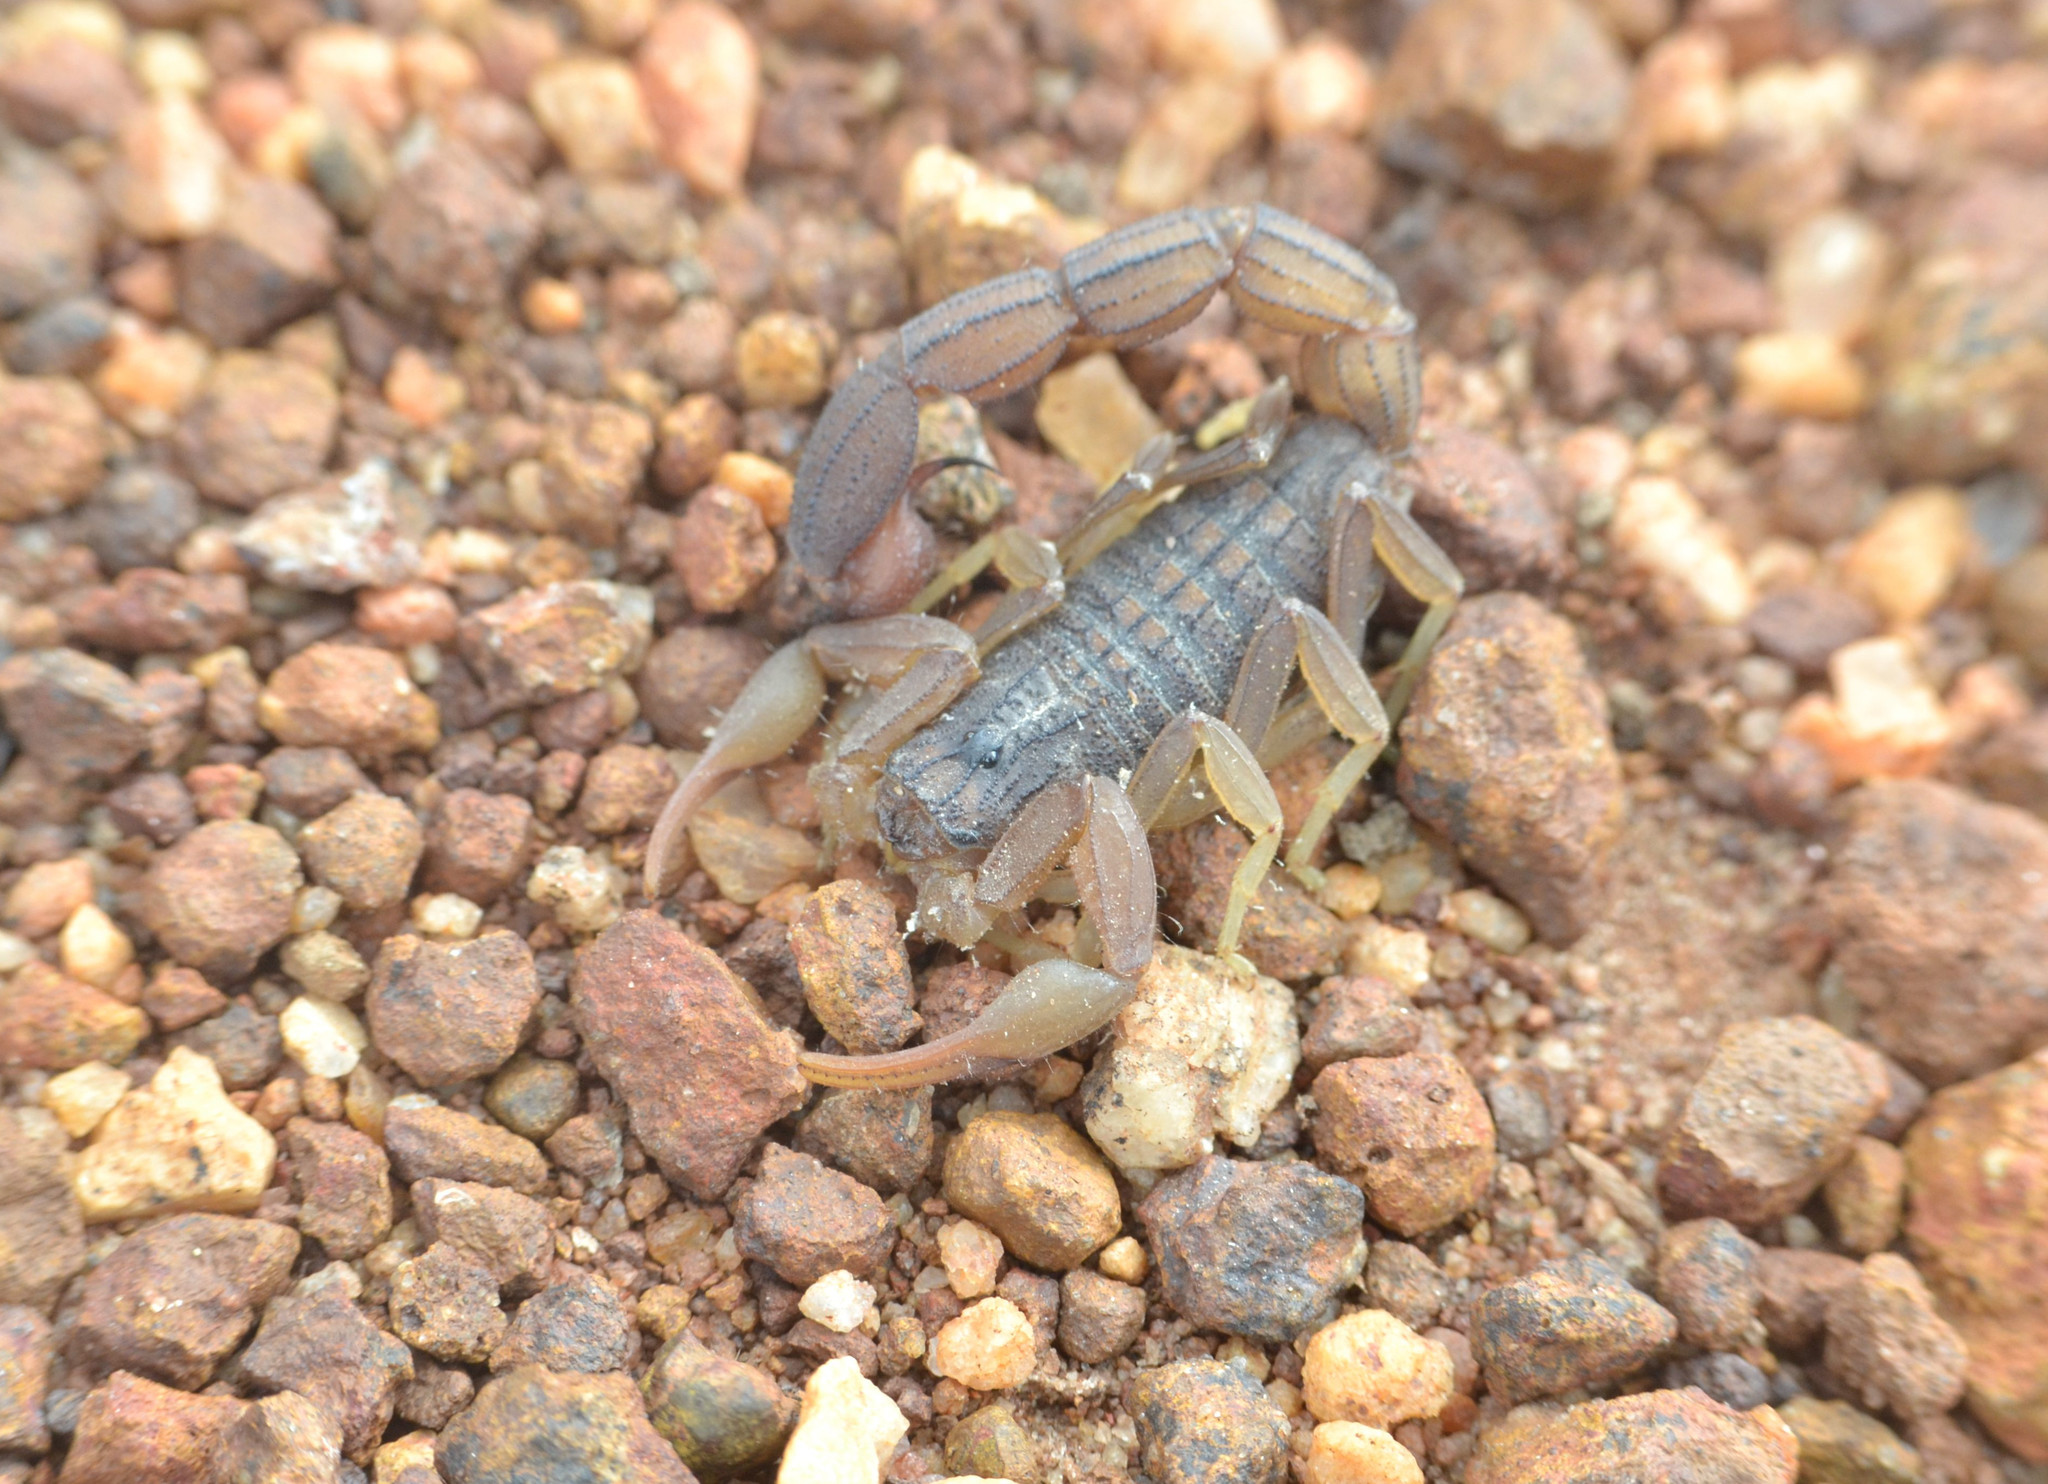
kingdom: Animalia
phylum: Arthropoda
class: Arachnida
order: Scorpiones
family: Buthidae
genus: Hottentotta
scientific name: Hottentotta hottentotta
